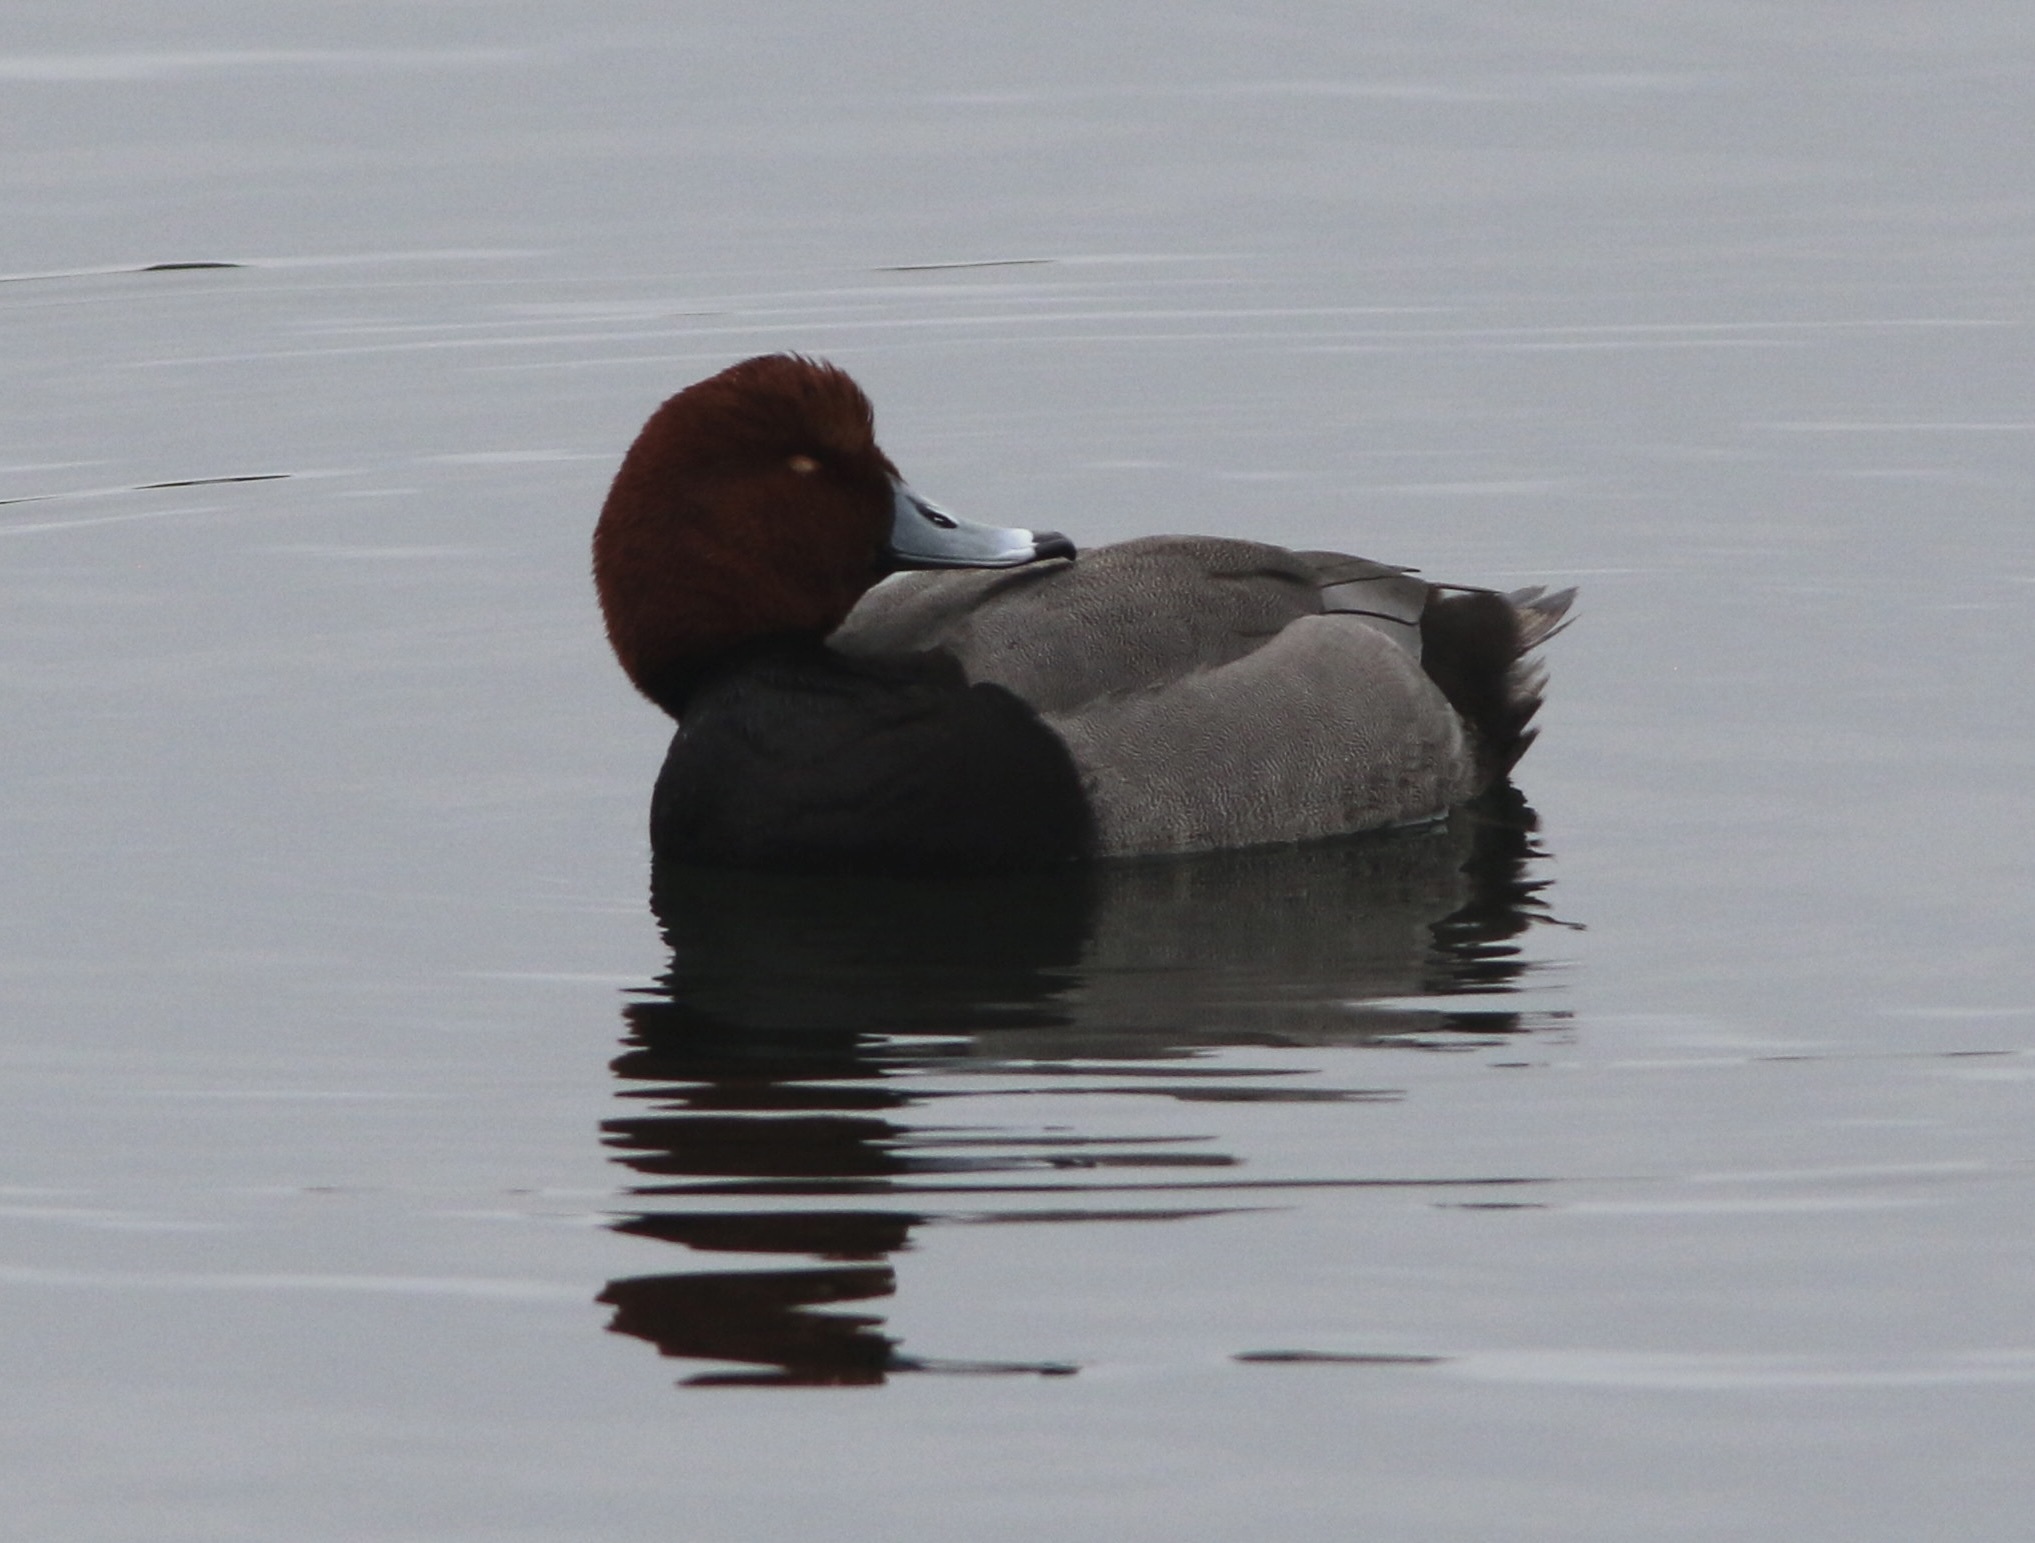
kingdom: Animalia
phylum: Chordata
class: Aves
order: Anseriformes
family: Anatidae
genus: Aythya
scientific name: Aythya americana
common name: Redhead
